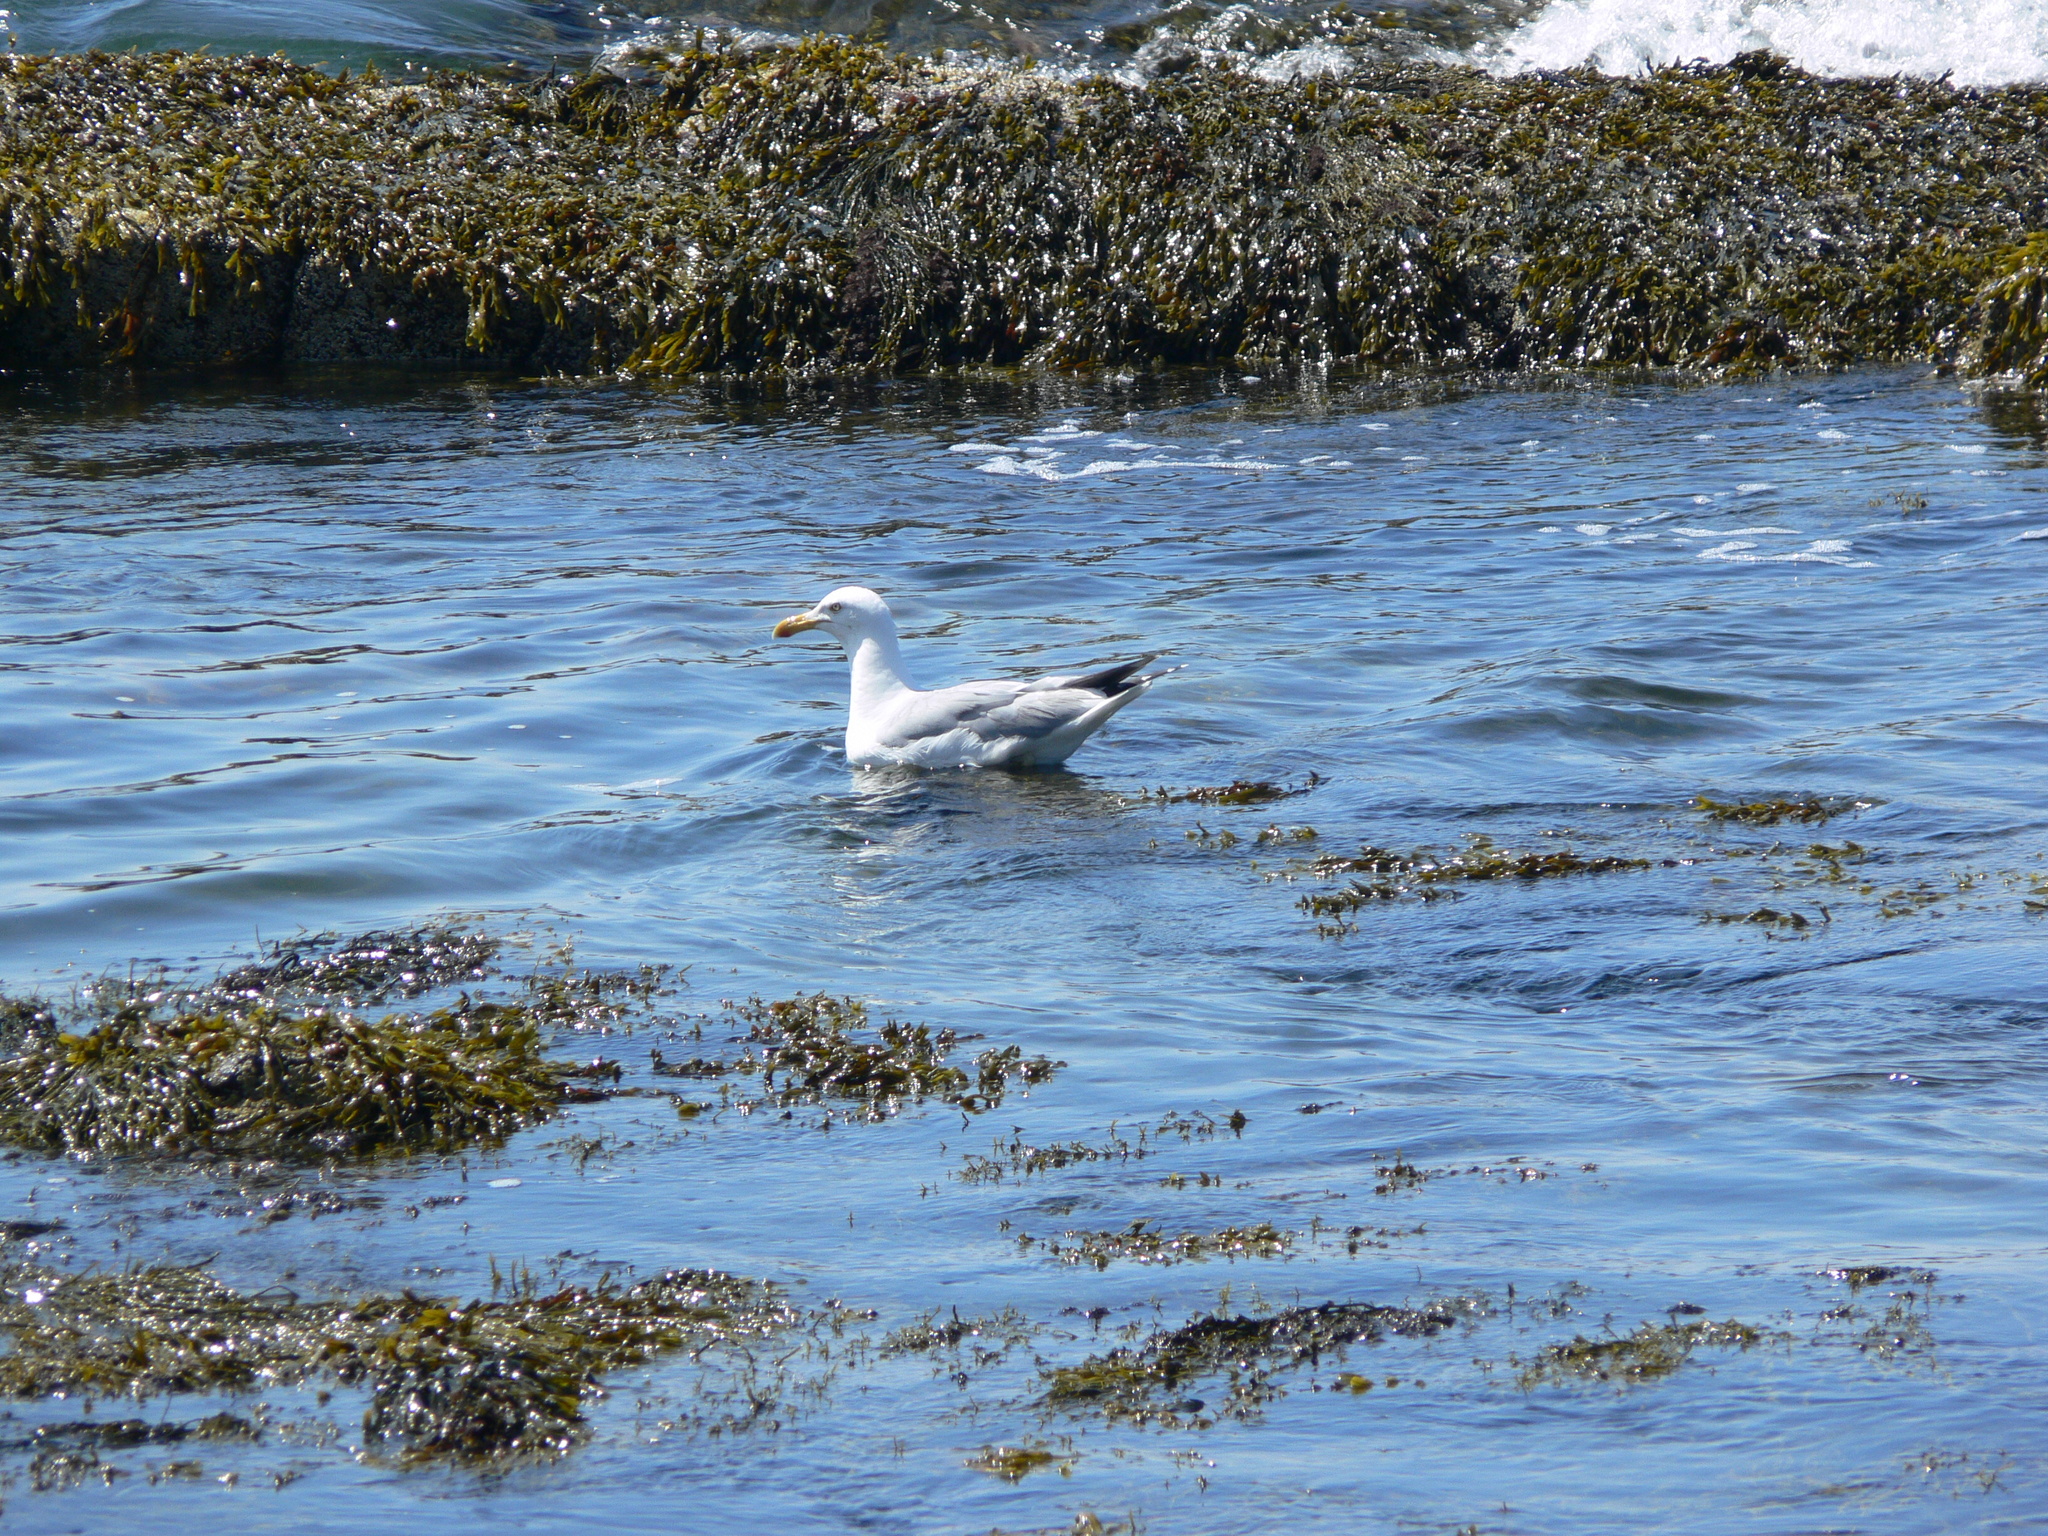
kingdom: Animalia
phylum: Chordata
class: Aves
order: Charadriiformes
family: Laridae
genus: Larus
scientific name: Larus argentatus
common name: Herring gull
